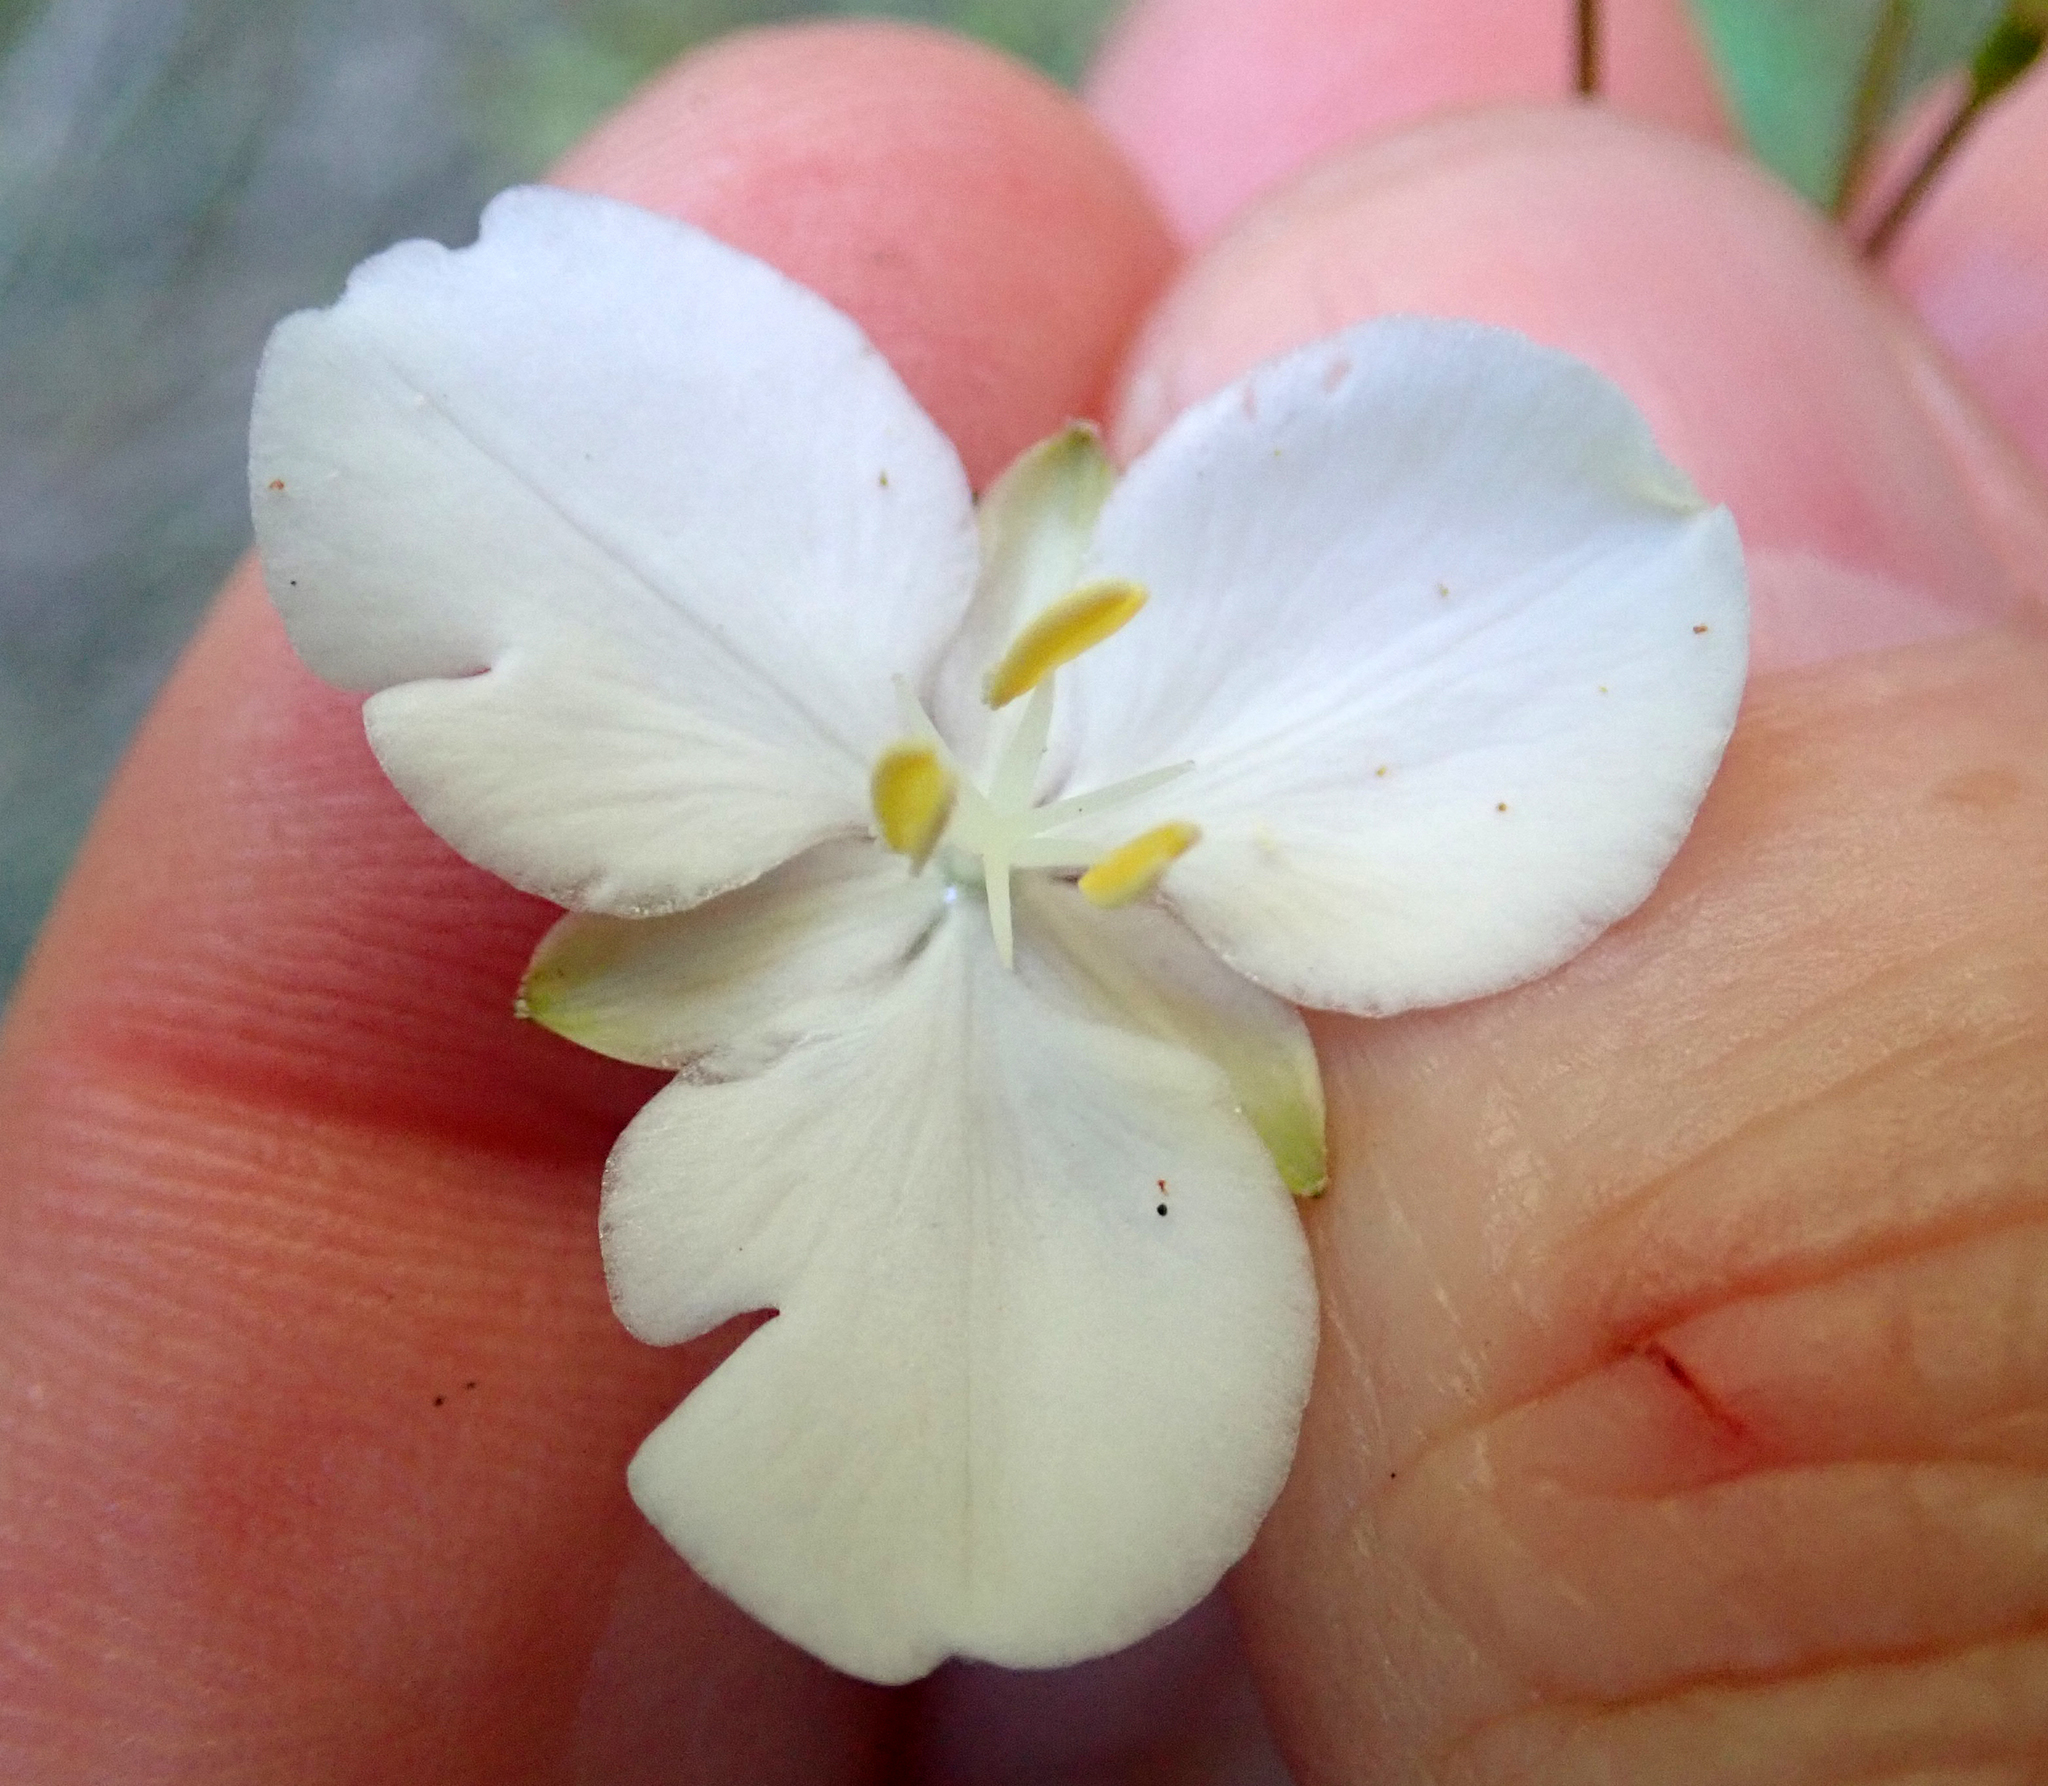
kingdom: Plantae
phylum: Tracheophyta
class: Liliopsida
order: Asparagales
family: Iridaceae
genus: Libertia
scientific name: Libertia grandiflora
